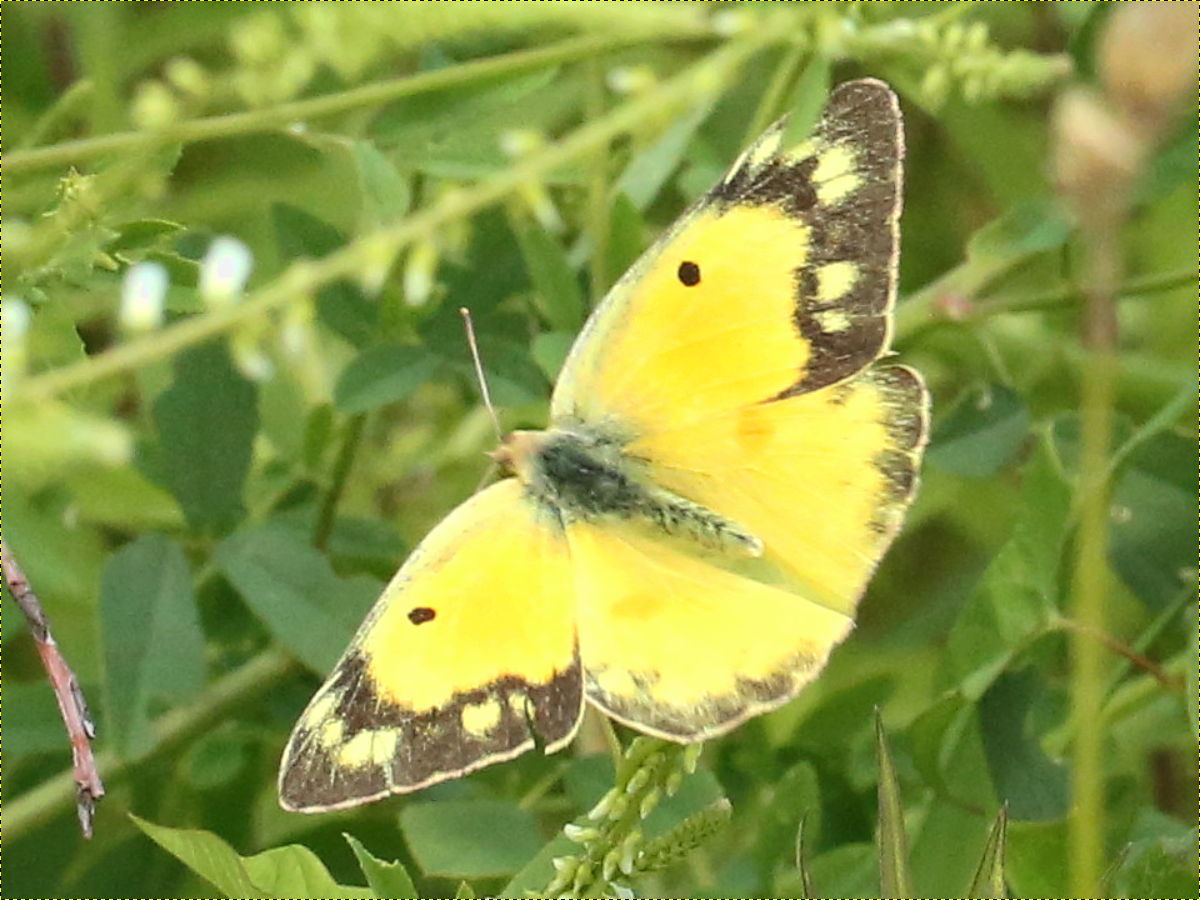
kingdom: Animalia
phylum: Arthropoda
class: Insecta
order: Lepidoptera
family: Pieridae
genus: Colias
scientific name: Colias eurytheme
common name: Alfalfa butterfly
